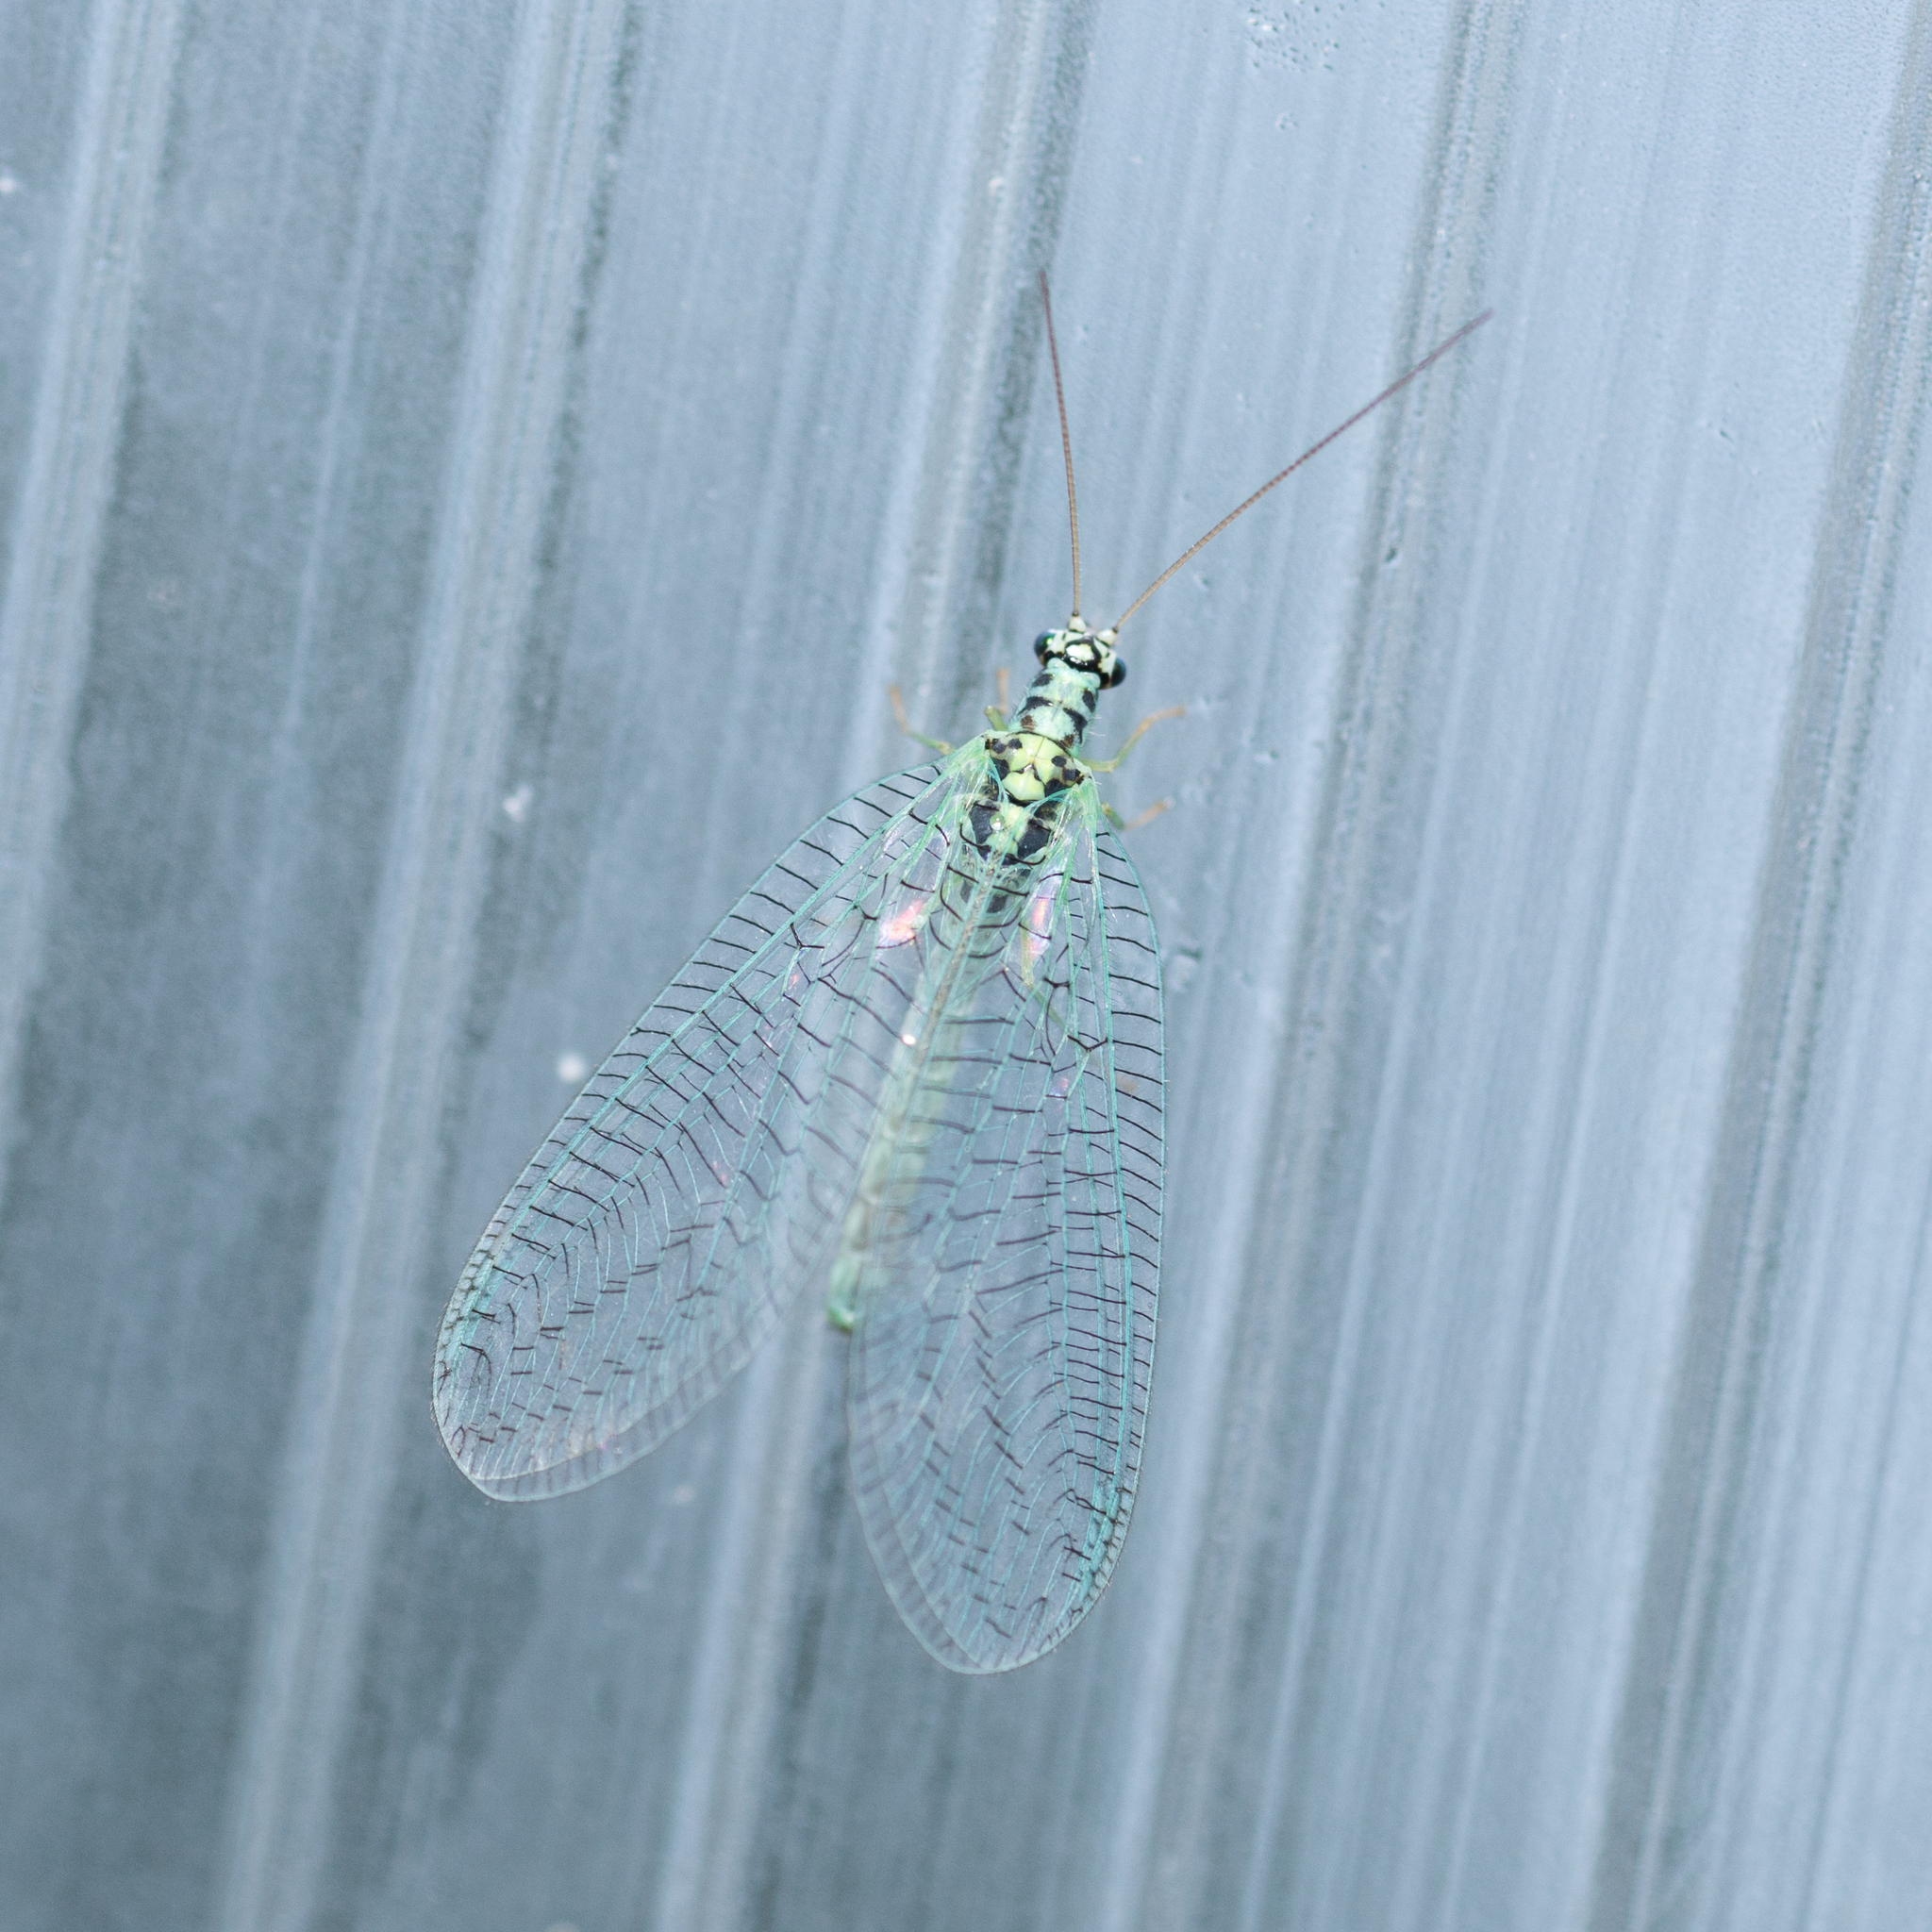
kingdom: Animalia
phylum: Arthropoda
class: Insecta
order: Neuroptera
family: Chrysopidae
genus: Chrysopa
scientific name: Chrysopa perla
